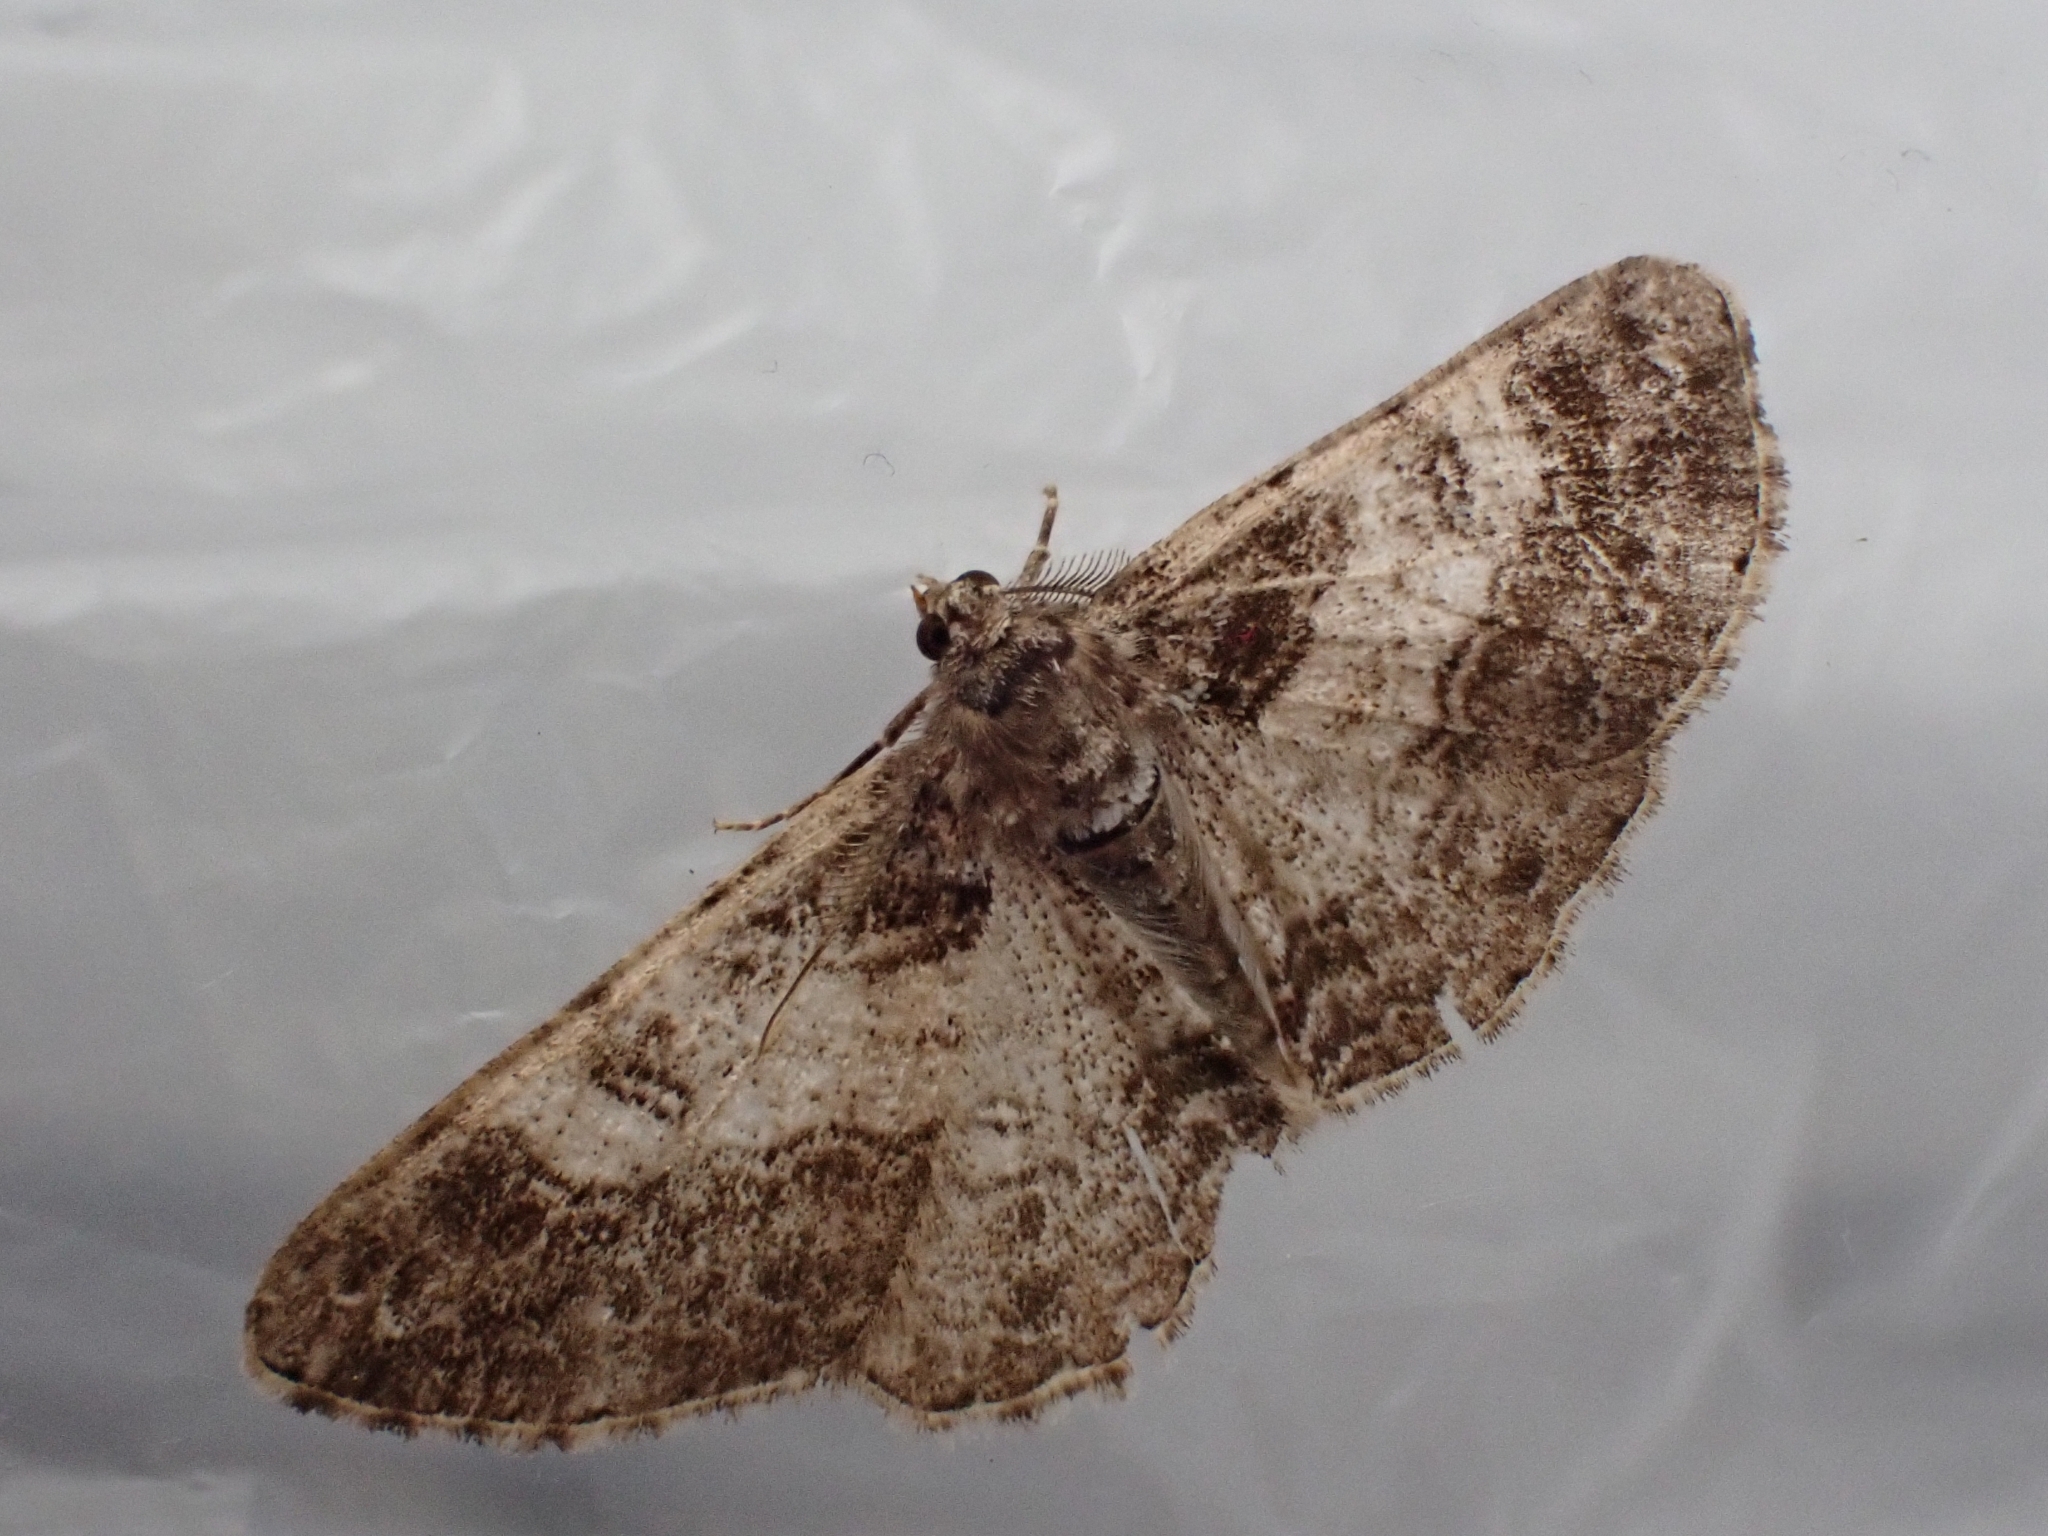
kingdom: Animalia
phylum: Arthropoda
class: Insecta
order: Lepidoptera
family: Geometridae
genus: Cleora
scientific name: Cleora cinctaria
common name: Ringed carpet
